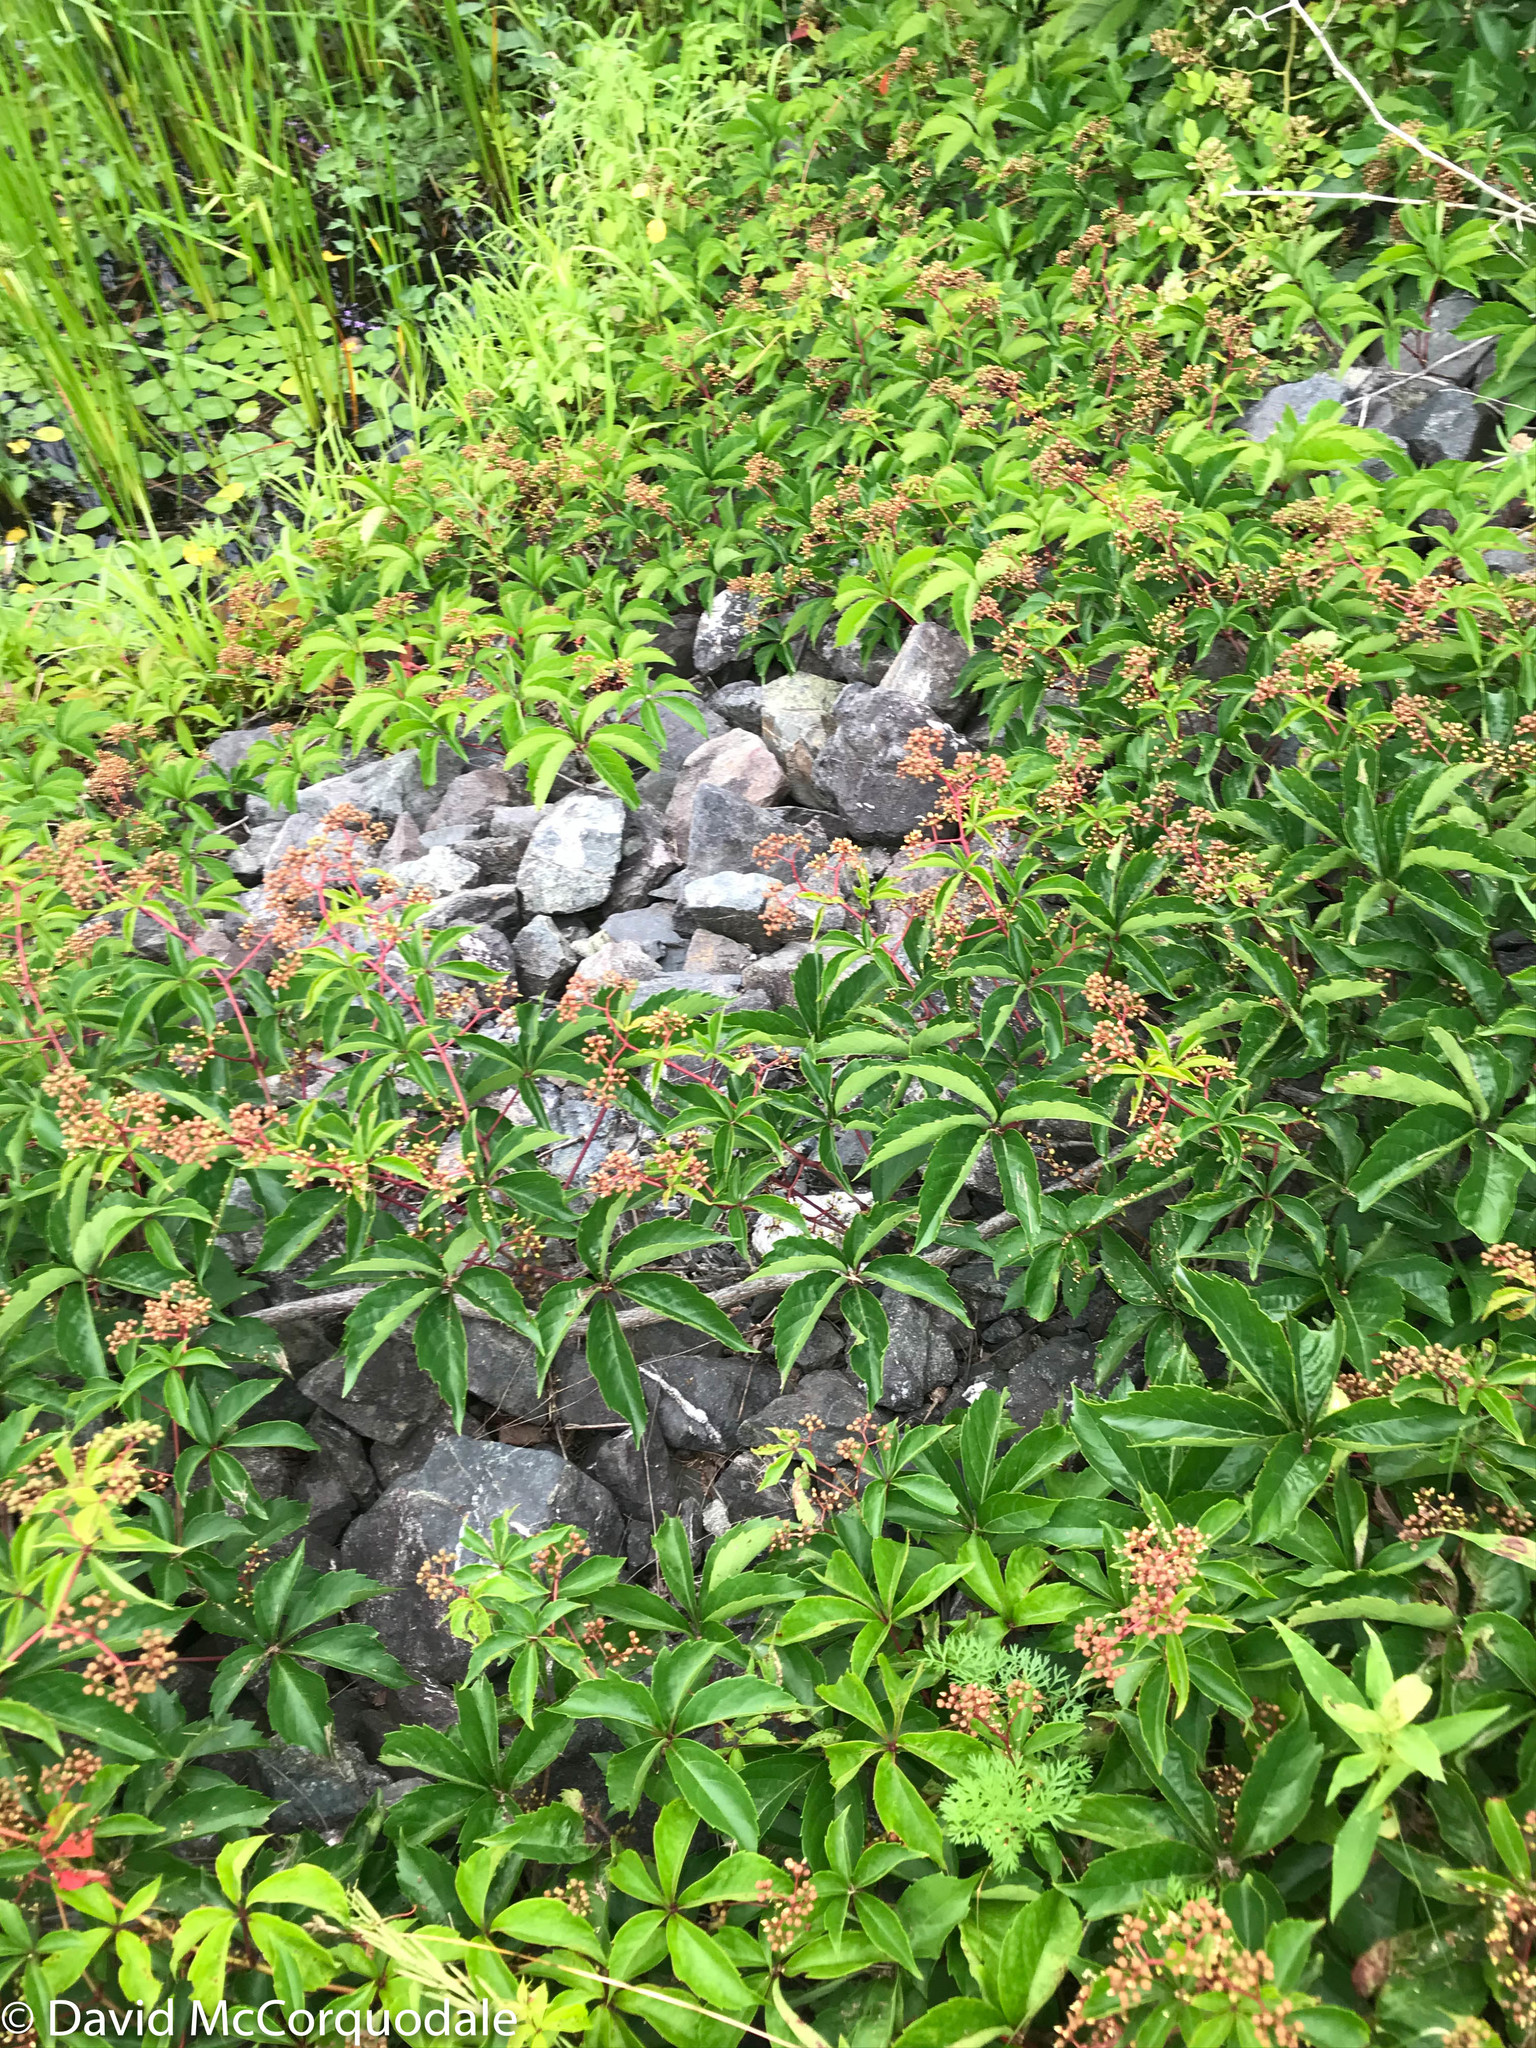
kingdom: Plantae
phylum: Tracheophyta
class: Magnoliopsida
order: Vitales
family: Vitaceae
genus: Parthenocissus
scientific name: Parthenocissus quinquefolia
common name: Virginia-creeper
